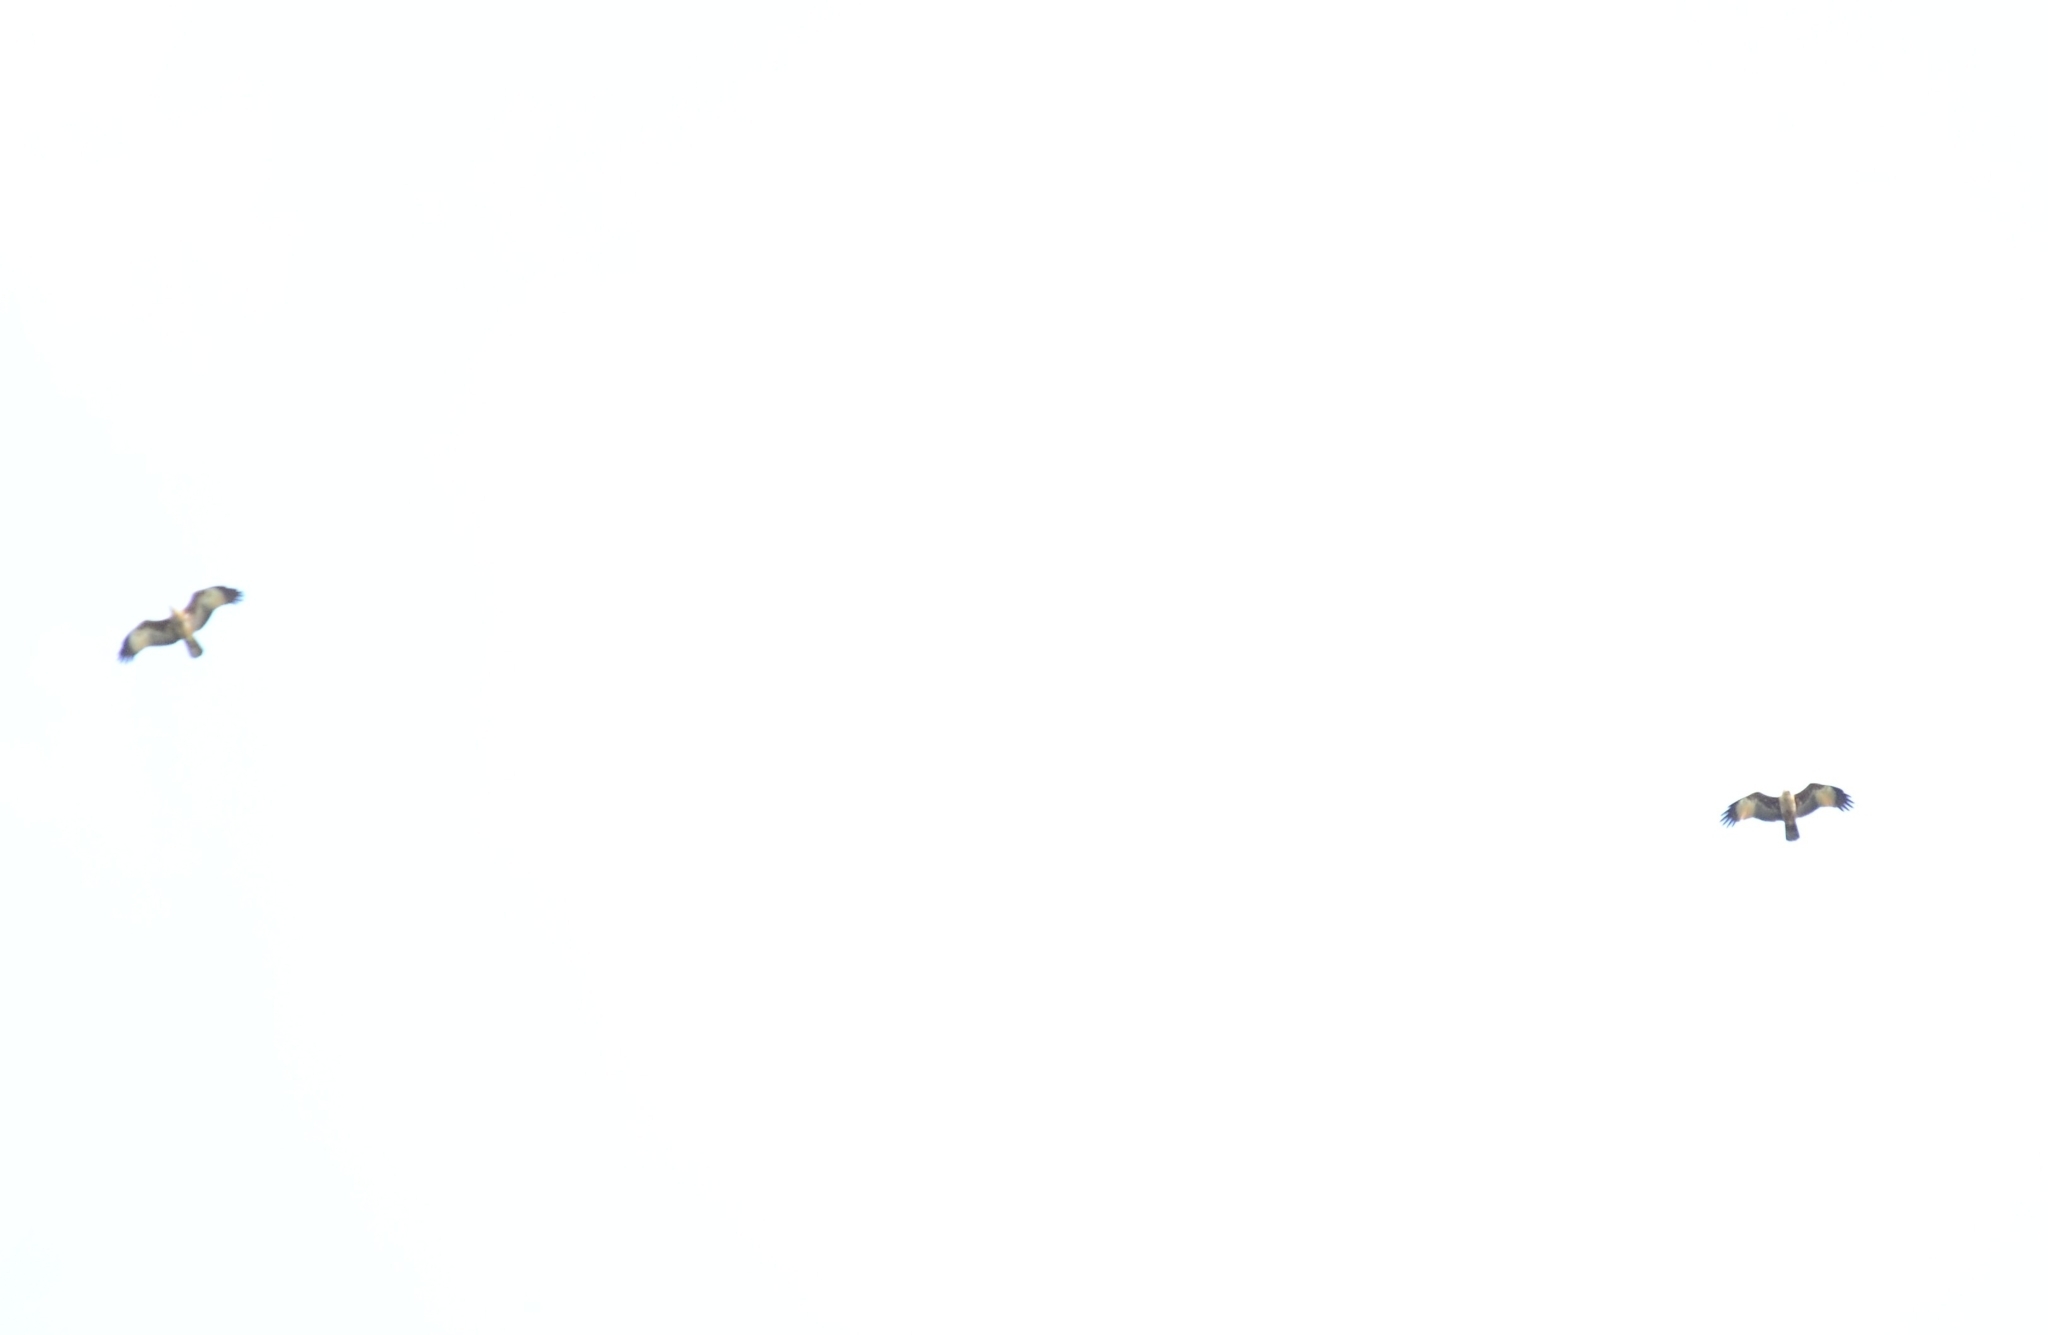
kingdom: Animalia
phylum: Chordata
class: Aves
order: Accipitriformes
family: Accipitridae
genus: Haliastur
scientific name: Haliastur indus
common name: Brahminy kite
